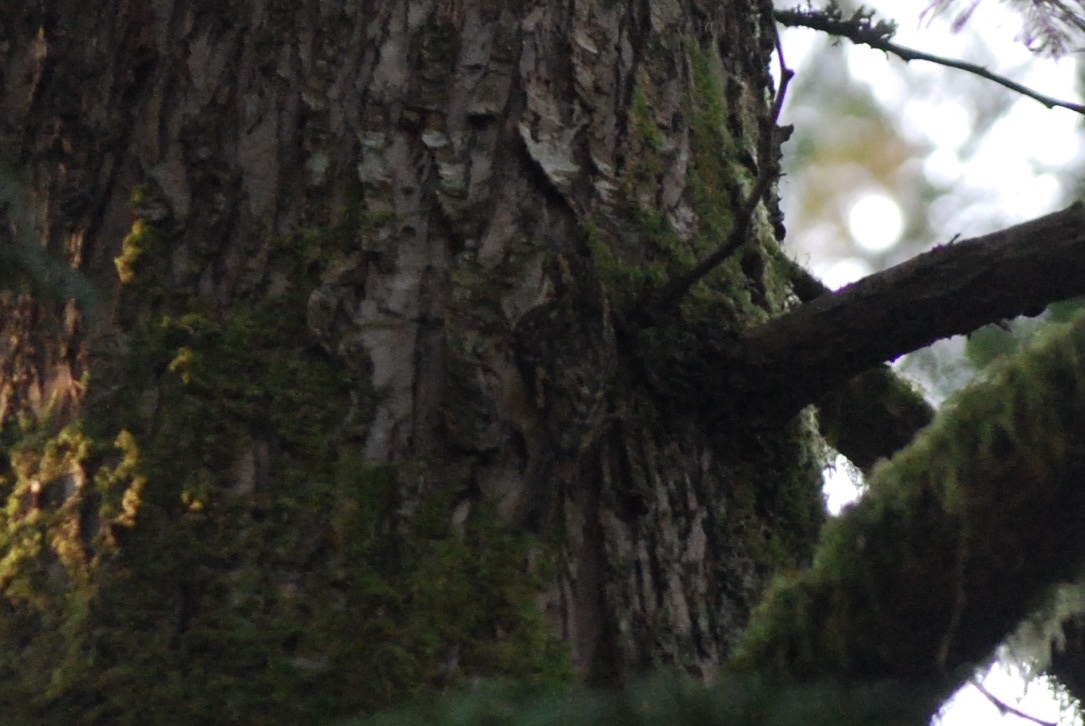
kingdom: Animalia
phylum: Chordata
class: Aves
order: Passeriformes
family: Certhiidae
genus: Certhia
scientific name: Certhia americana
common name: Brown creeper
